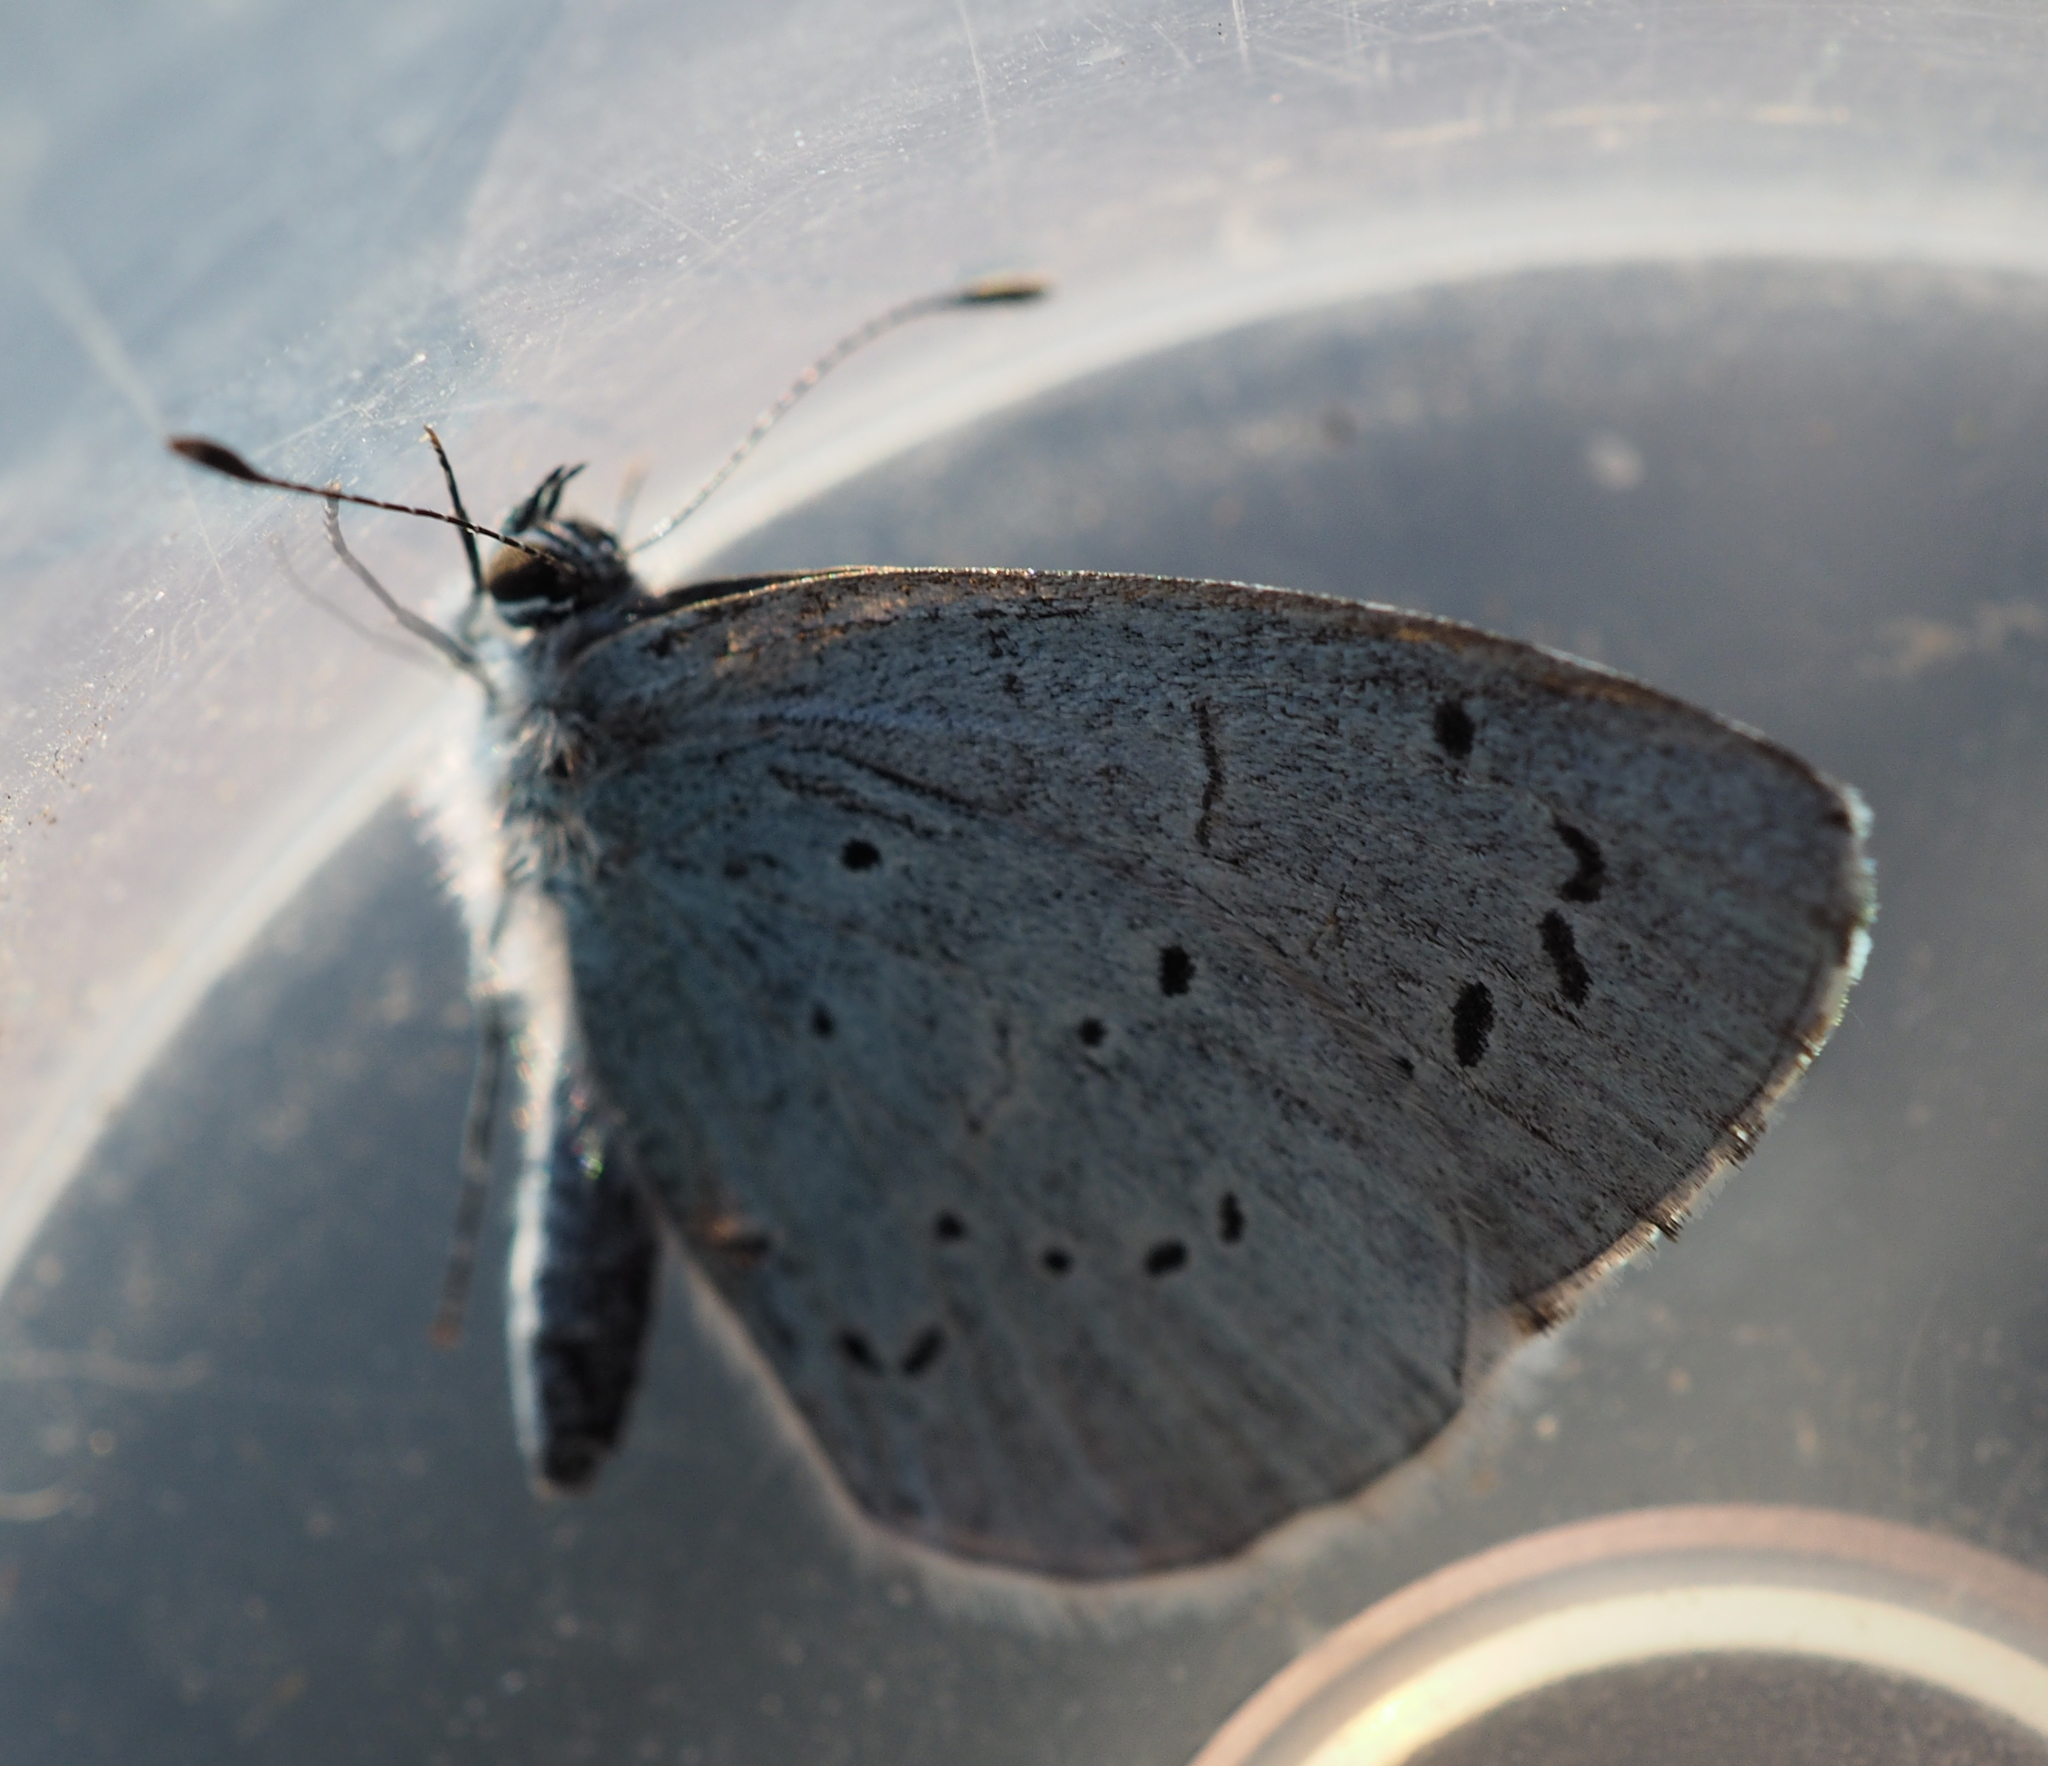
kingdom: Animalia
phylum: Arthropoda
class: Insecta
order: Lepidoptera
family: Lycaenidae
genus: Celastrina
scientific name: Celastrina argiolus
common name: Holly blue
